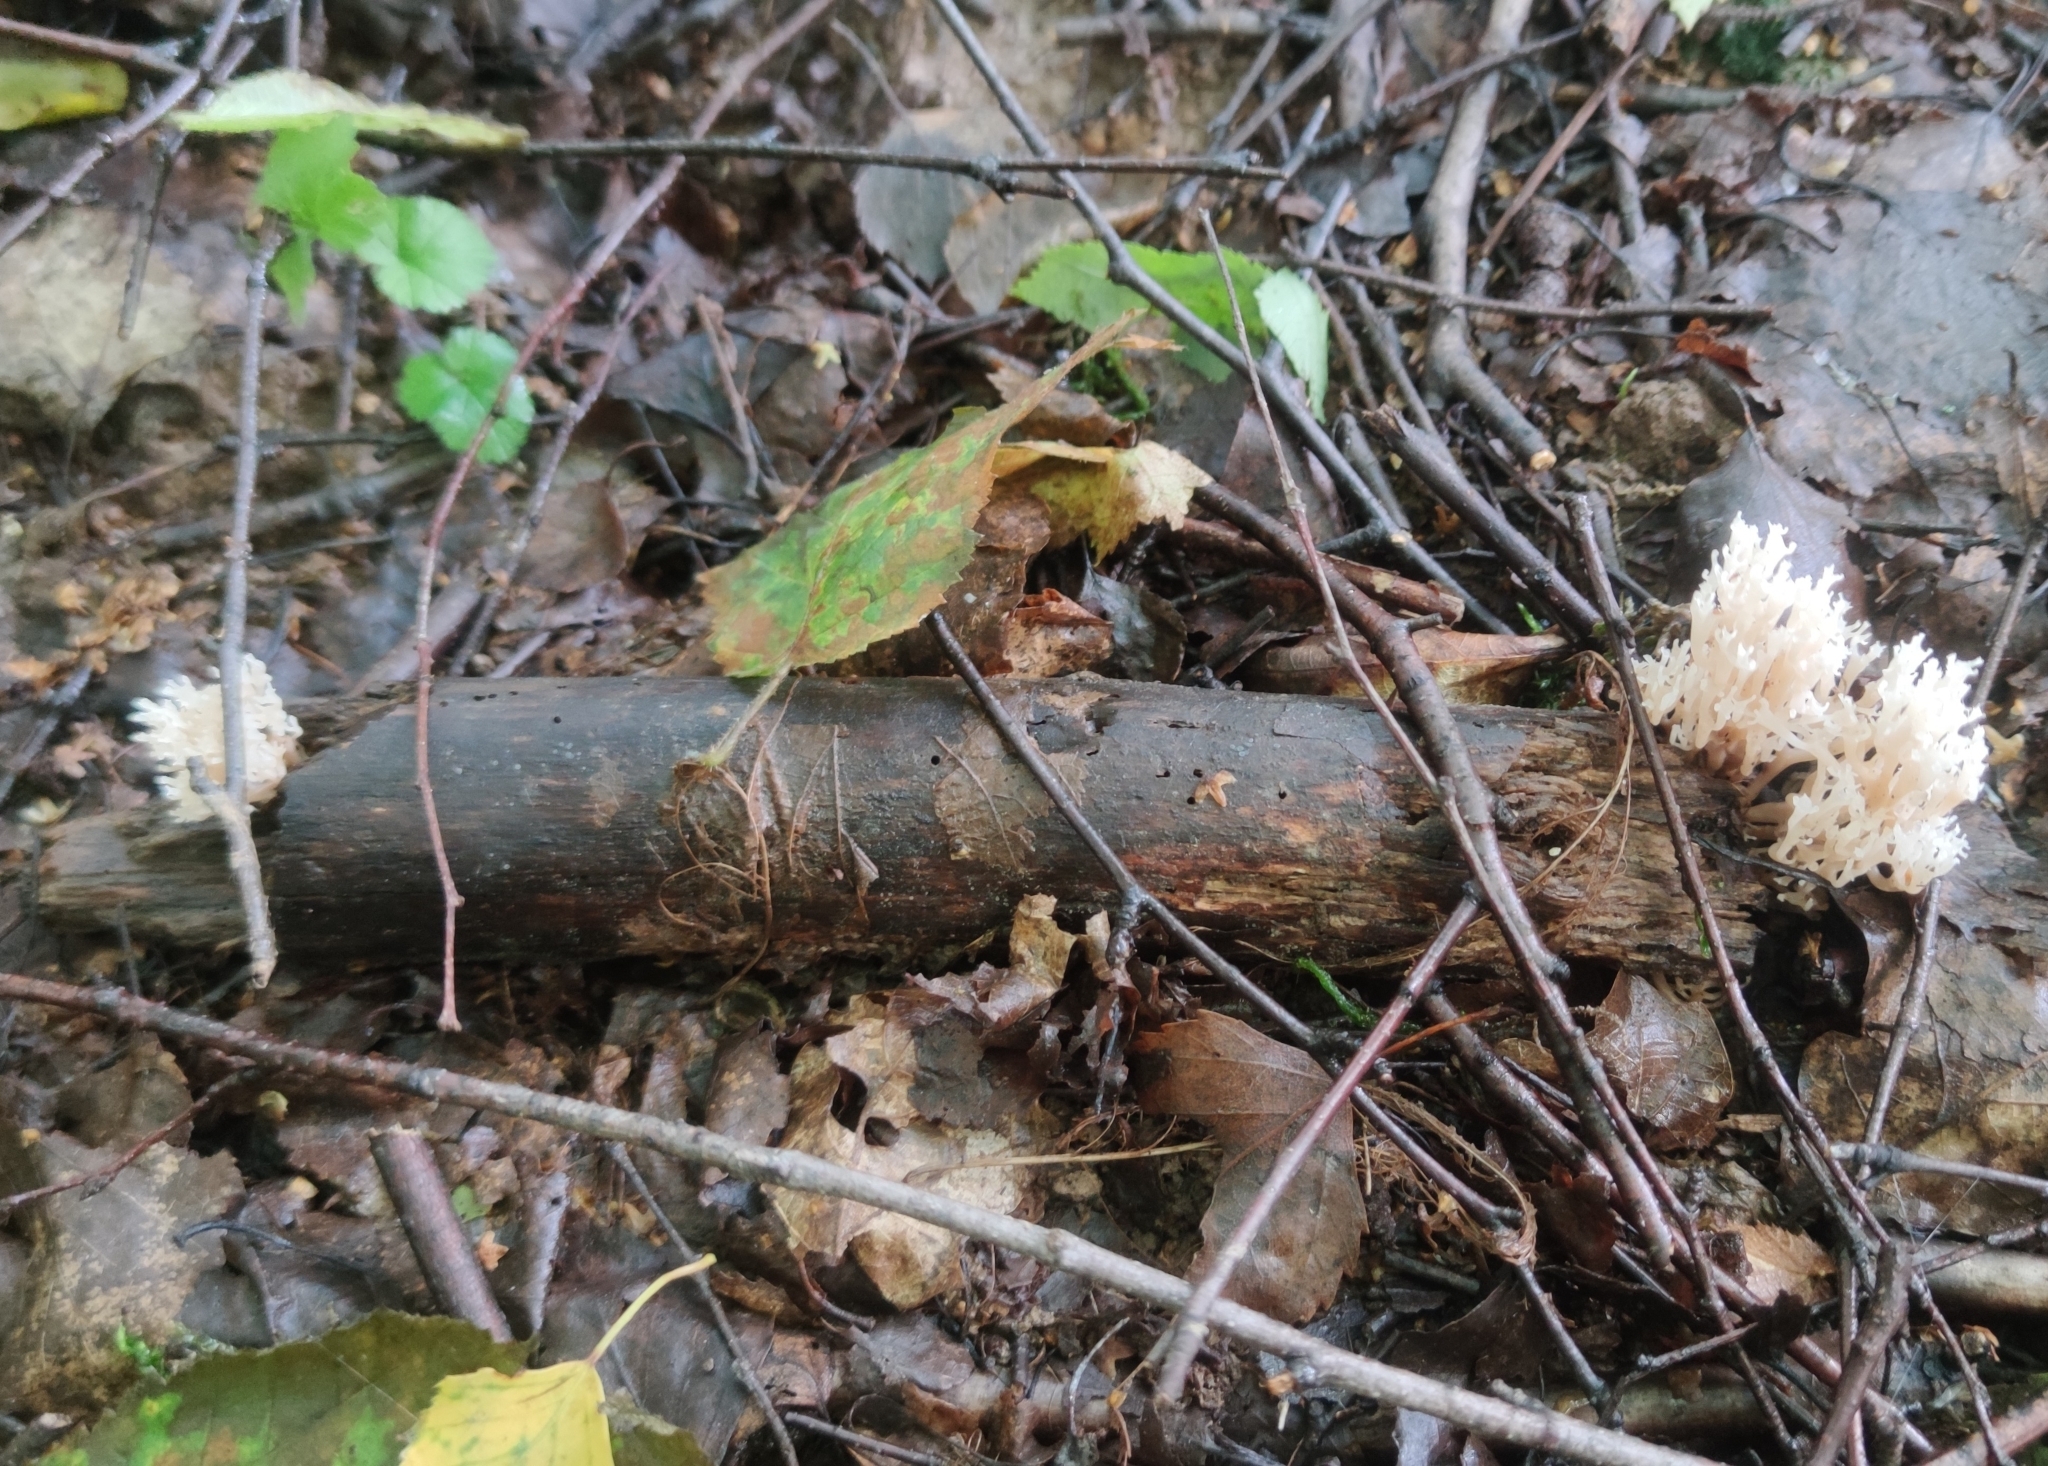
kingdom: Fungi
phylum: Basidiomycota
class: Agaricomycetes
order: Russulales
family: Auriscalpiaceae
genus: Artomyces
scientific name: Artomyces pyxidatus
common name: Crown-tipped coral fungus
